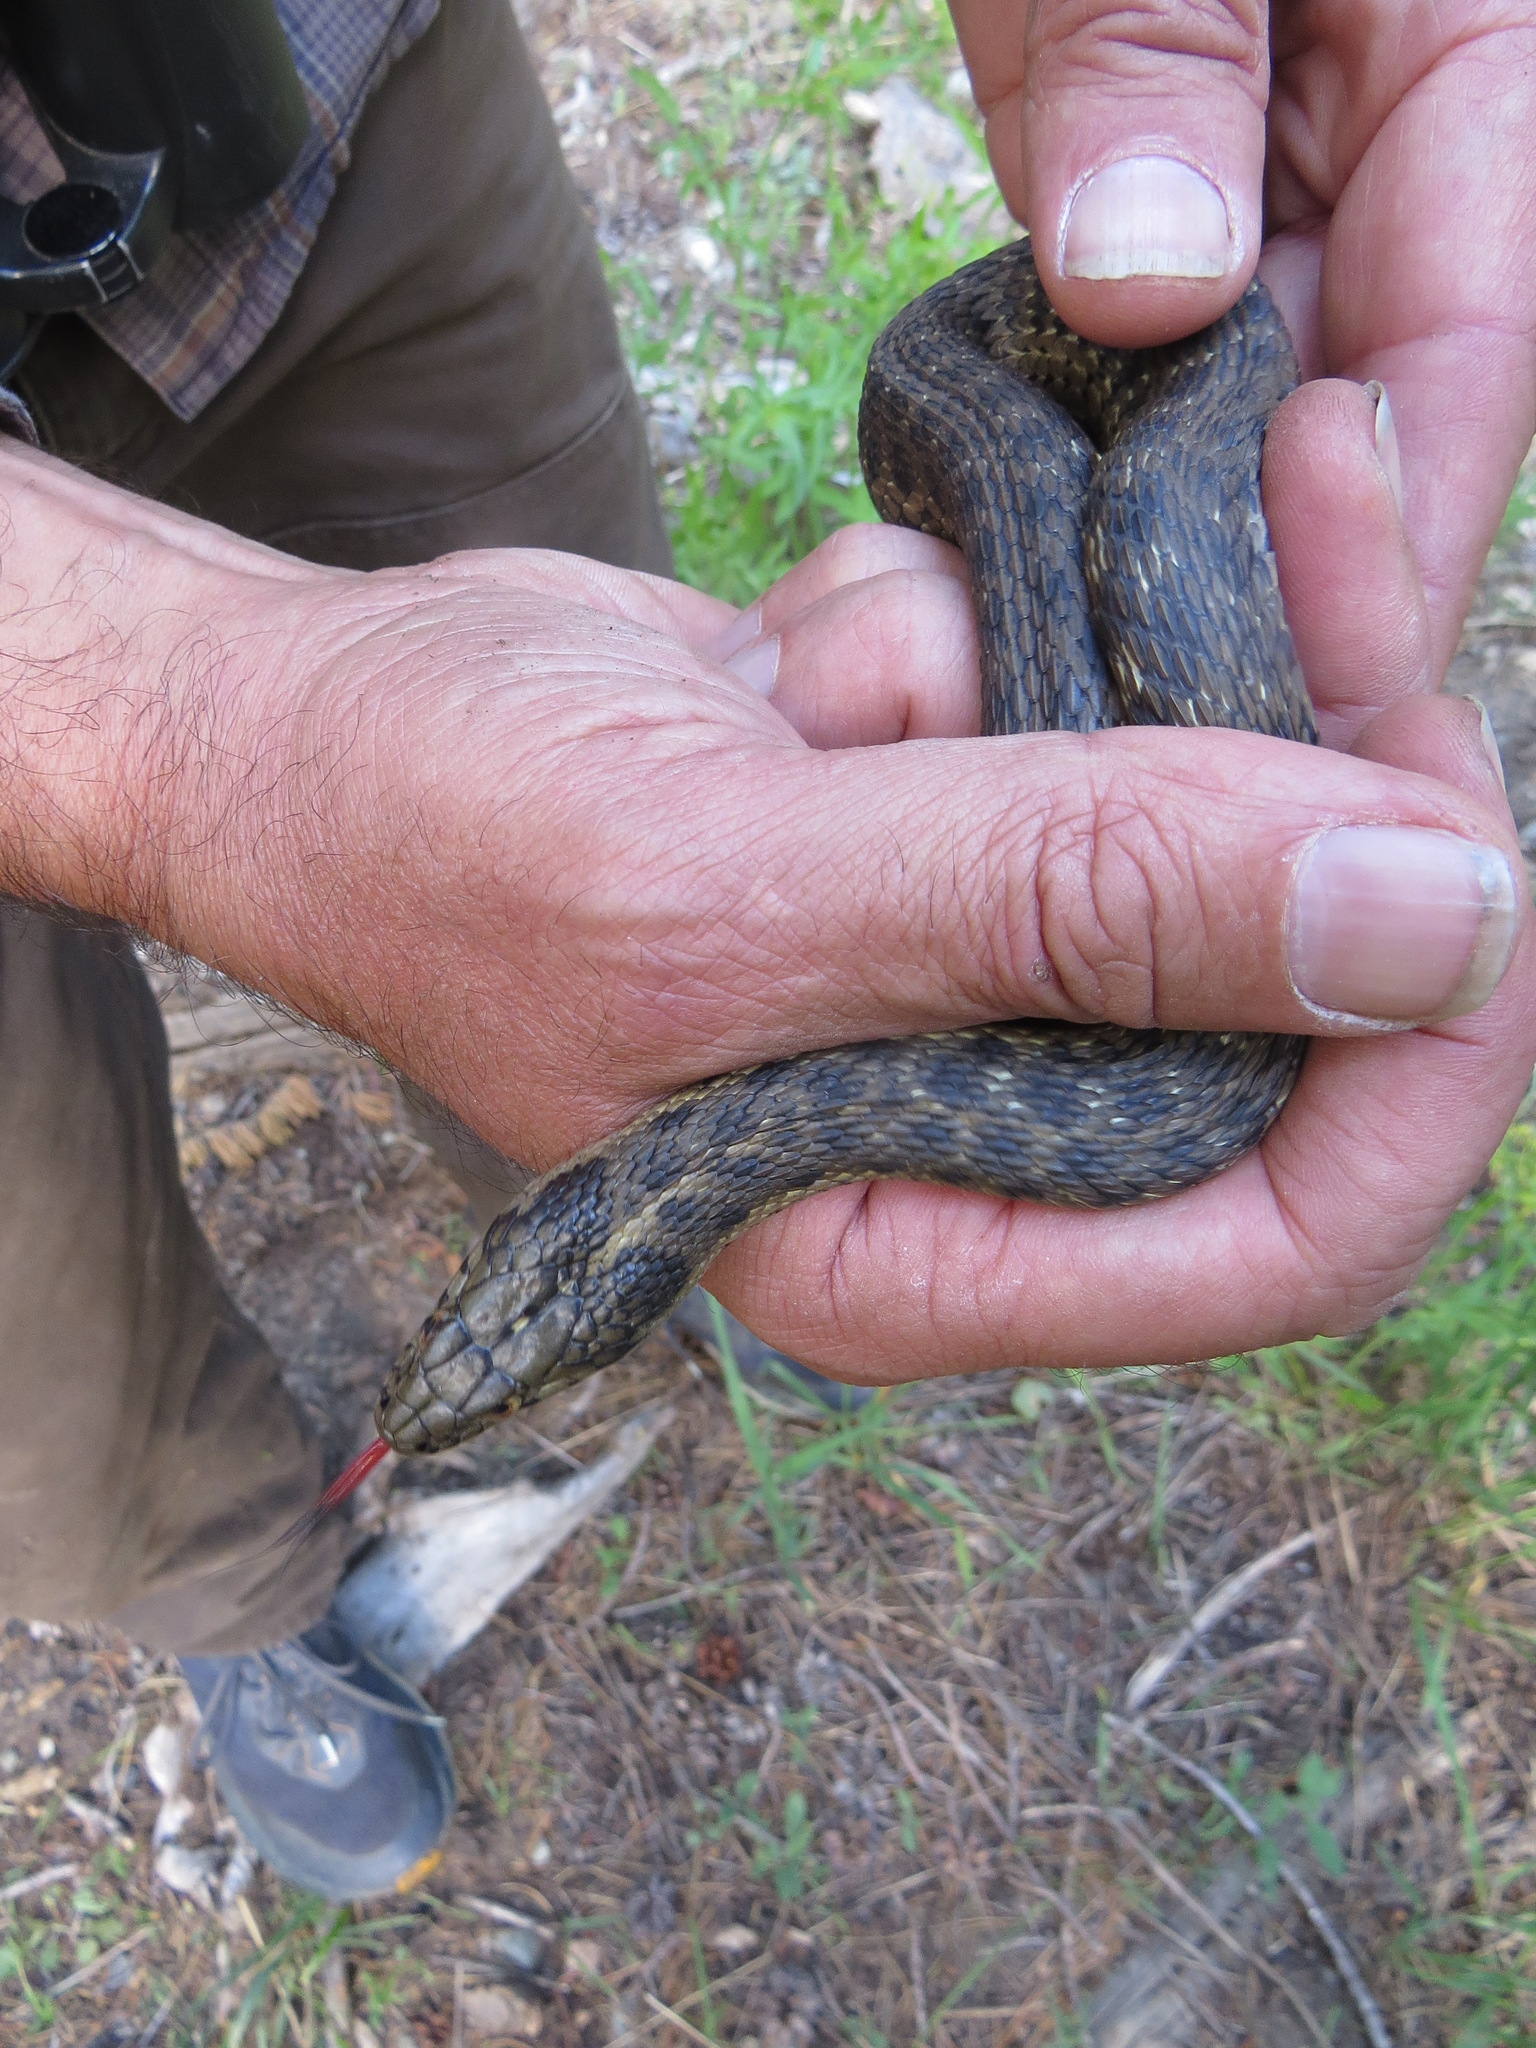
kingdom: Animalia
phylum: Chordata
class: Squamata
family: Colubridae
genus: Thamnophis
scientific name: Thamnophis couchii
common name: Western aquatic garter snake
